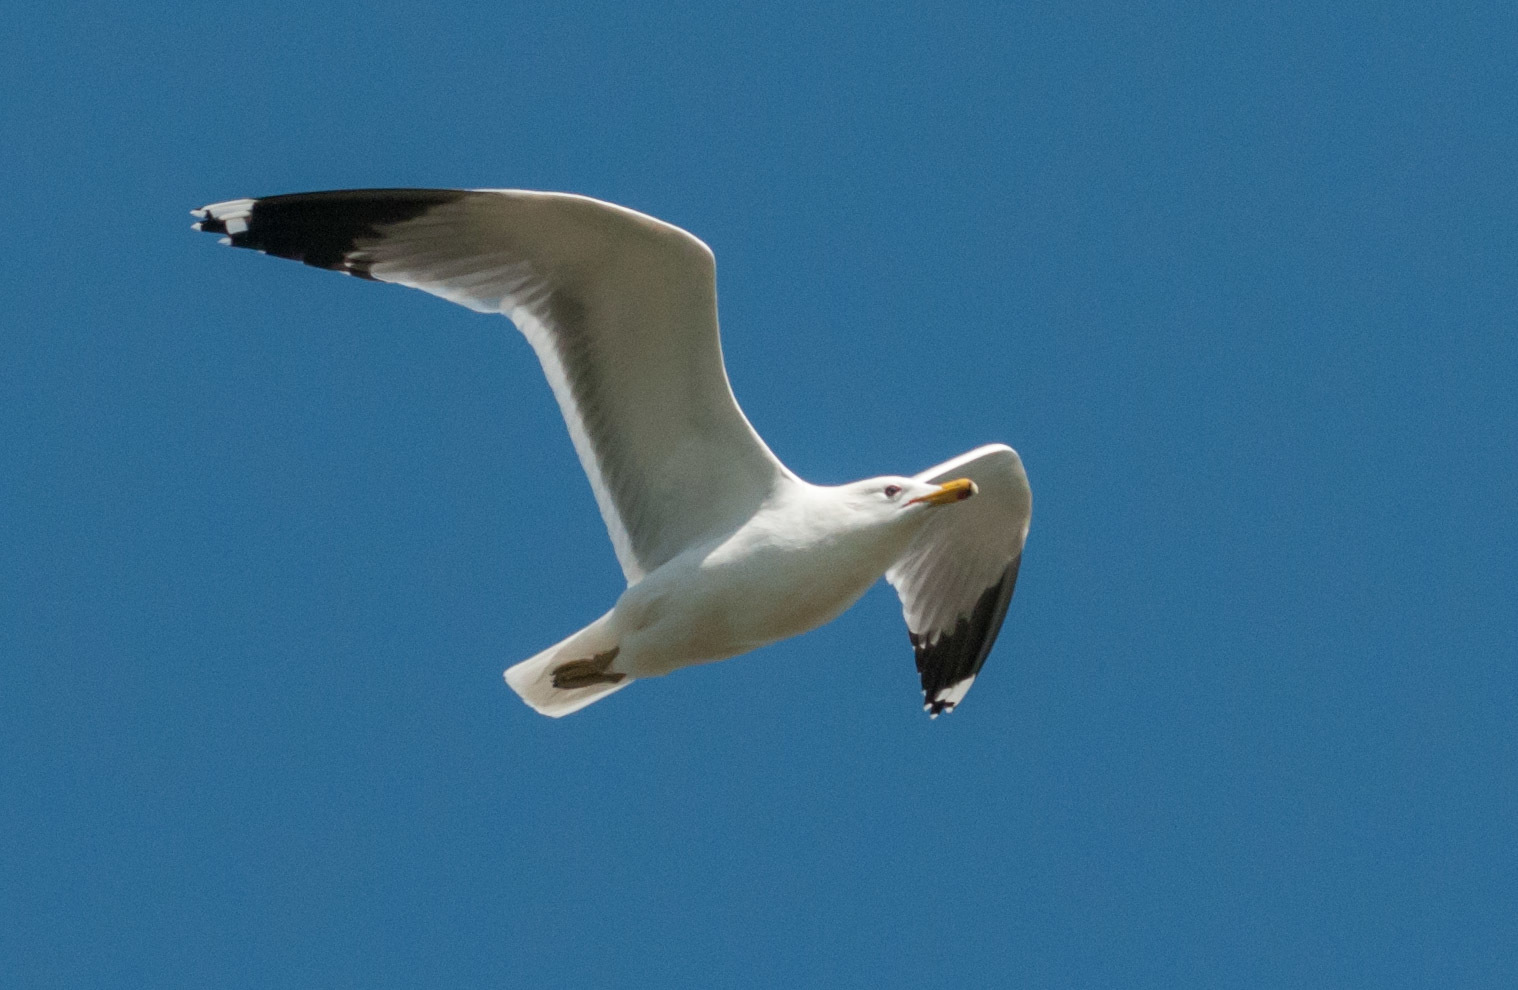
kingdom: Animalia
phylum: Chordata
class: Aves
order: Charadriiformes
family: Laridae
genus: Larus
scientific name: Larus californicus
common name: California gull
